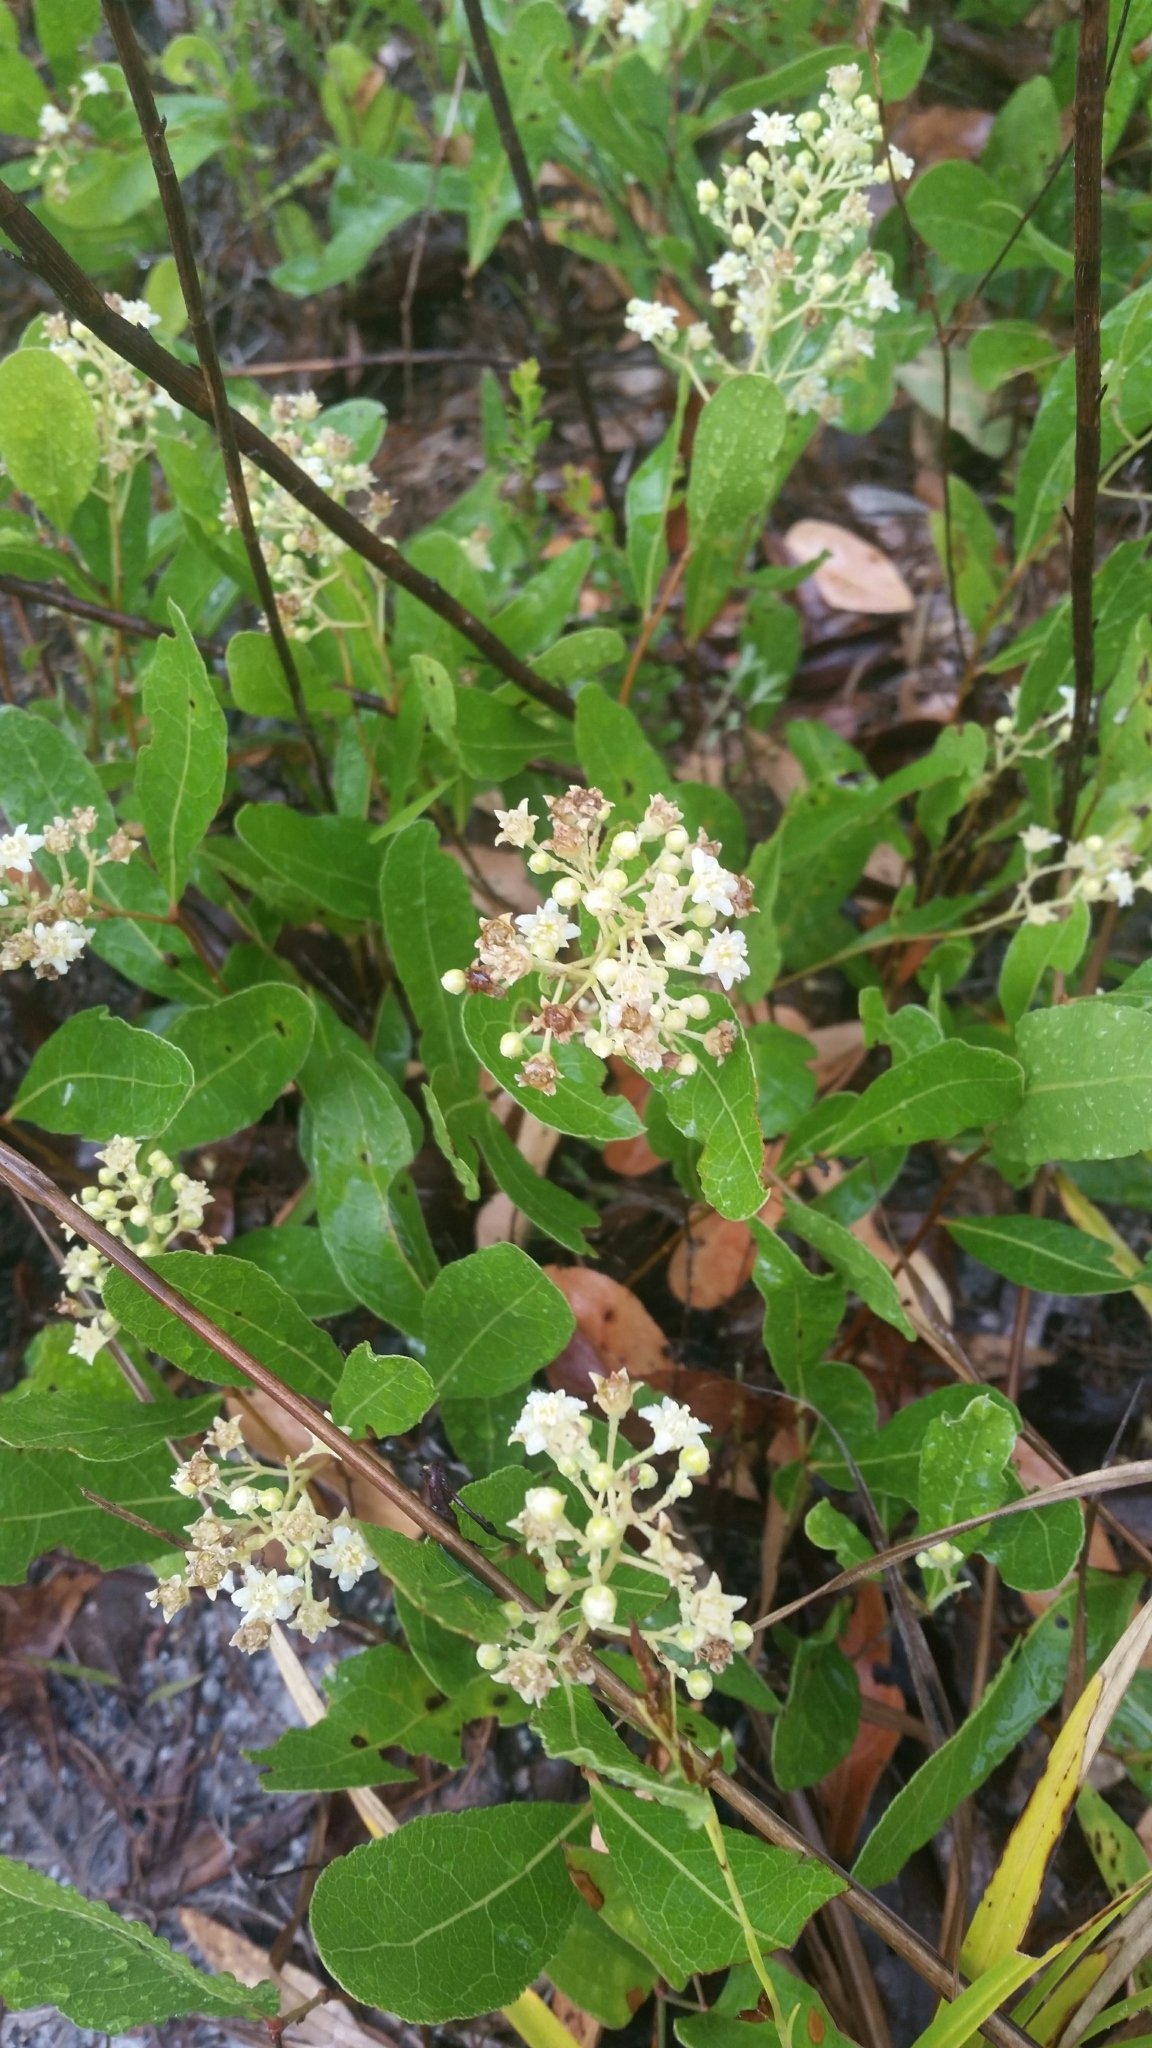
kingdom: Plantae
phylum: Tracheophyta
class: Magnoliopsida
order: Malpighiales
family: Chrysobalanaceae
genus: Geobalanus
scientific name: Geobalanus oblongifolius
